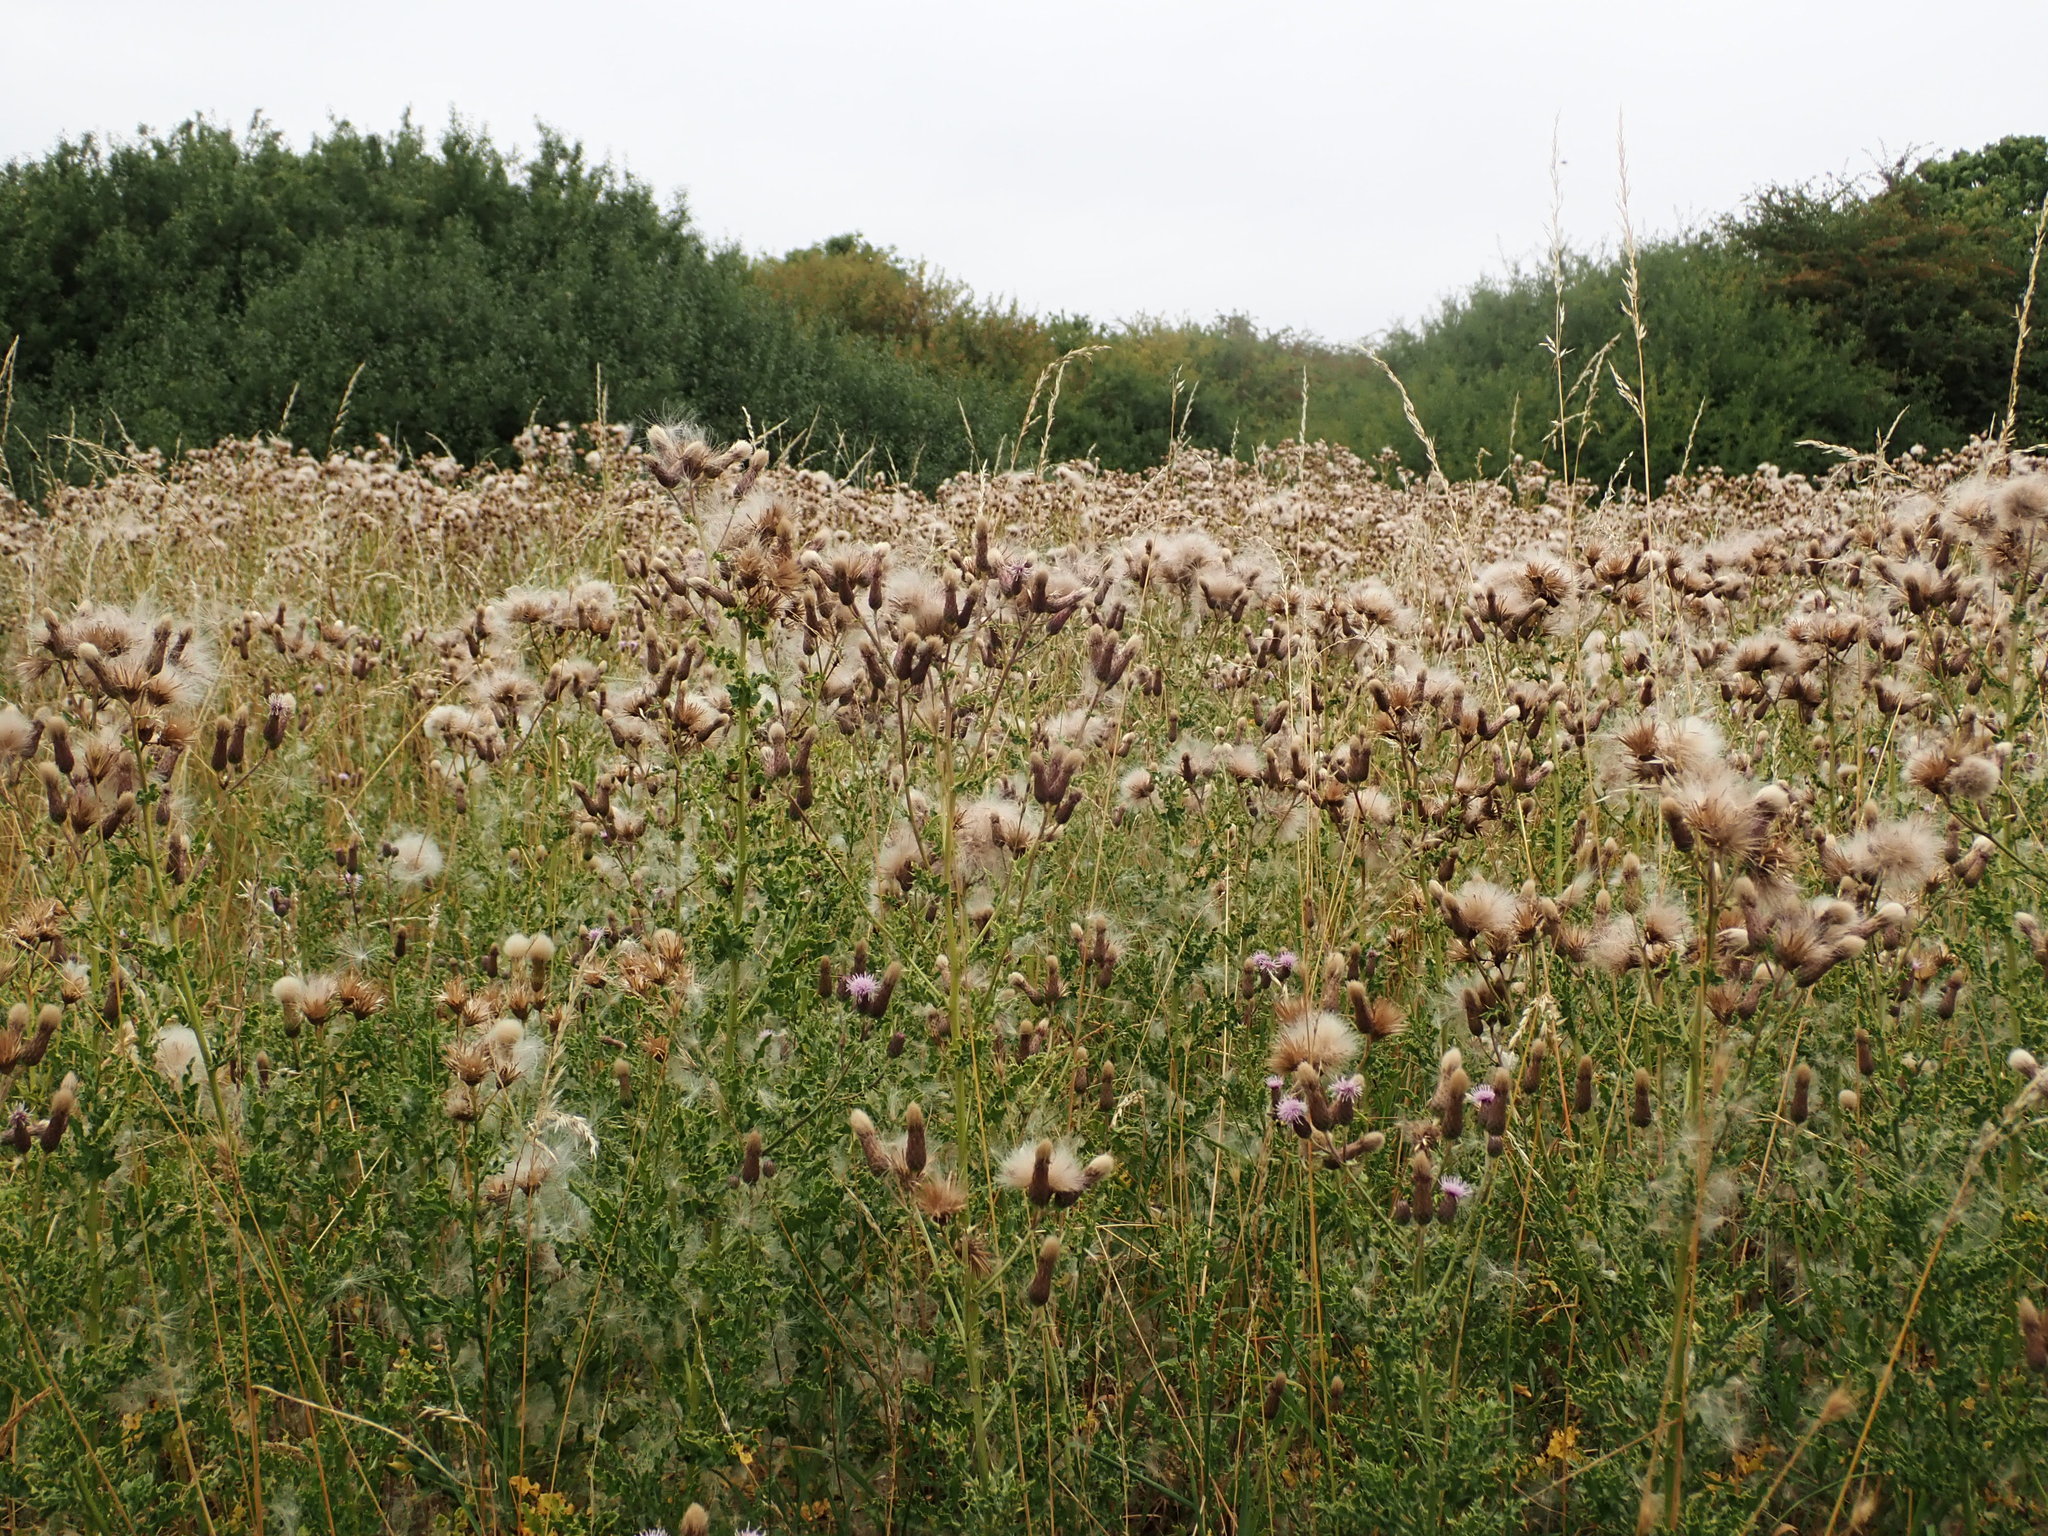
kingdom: Plantae
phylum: Tracheophyta
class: Magnoliopsida
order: Asterales
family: Asteraceae
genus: Cirsium
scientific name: Cirsium arvense
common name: Creeping thistle
